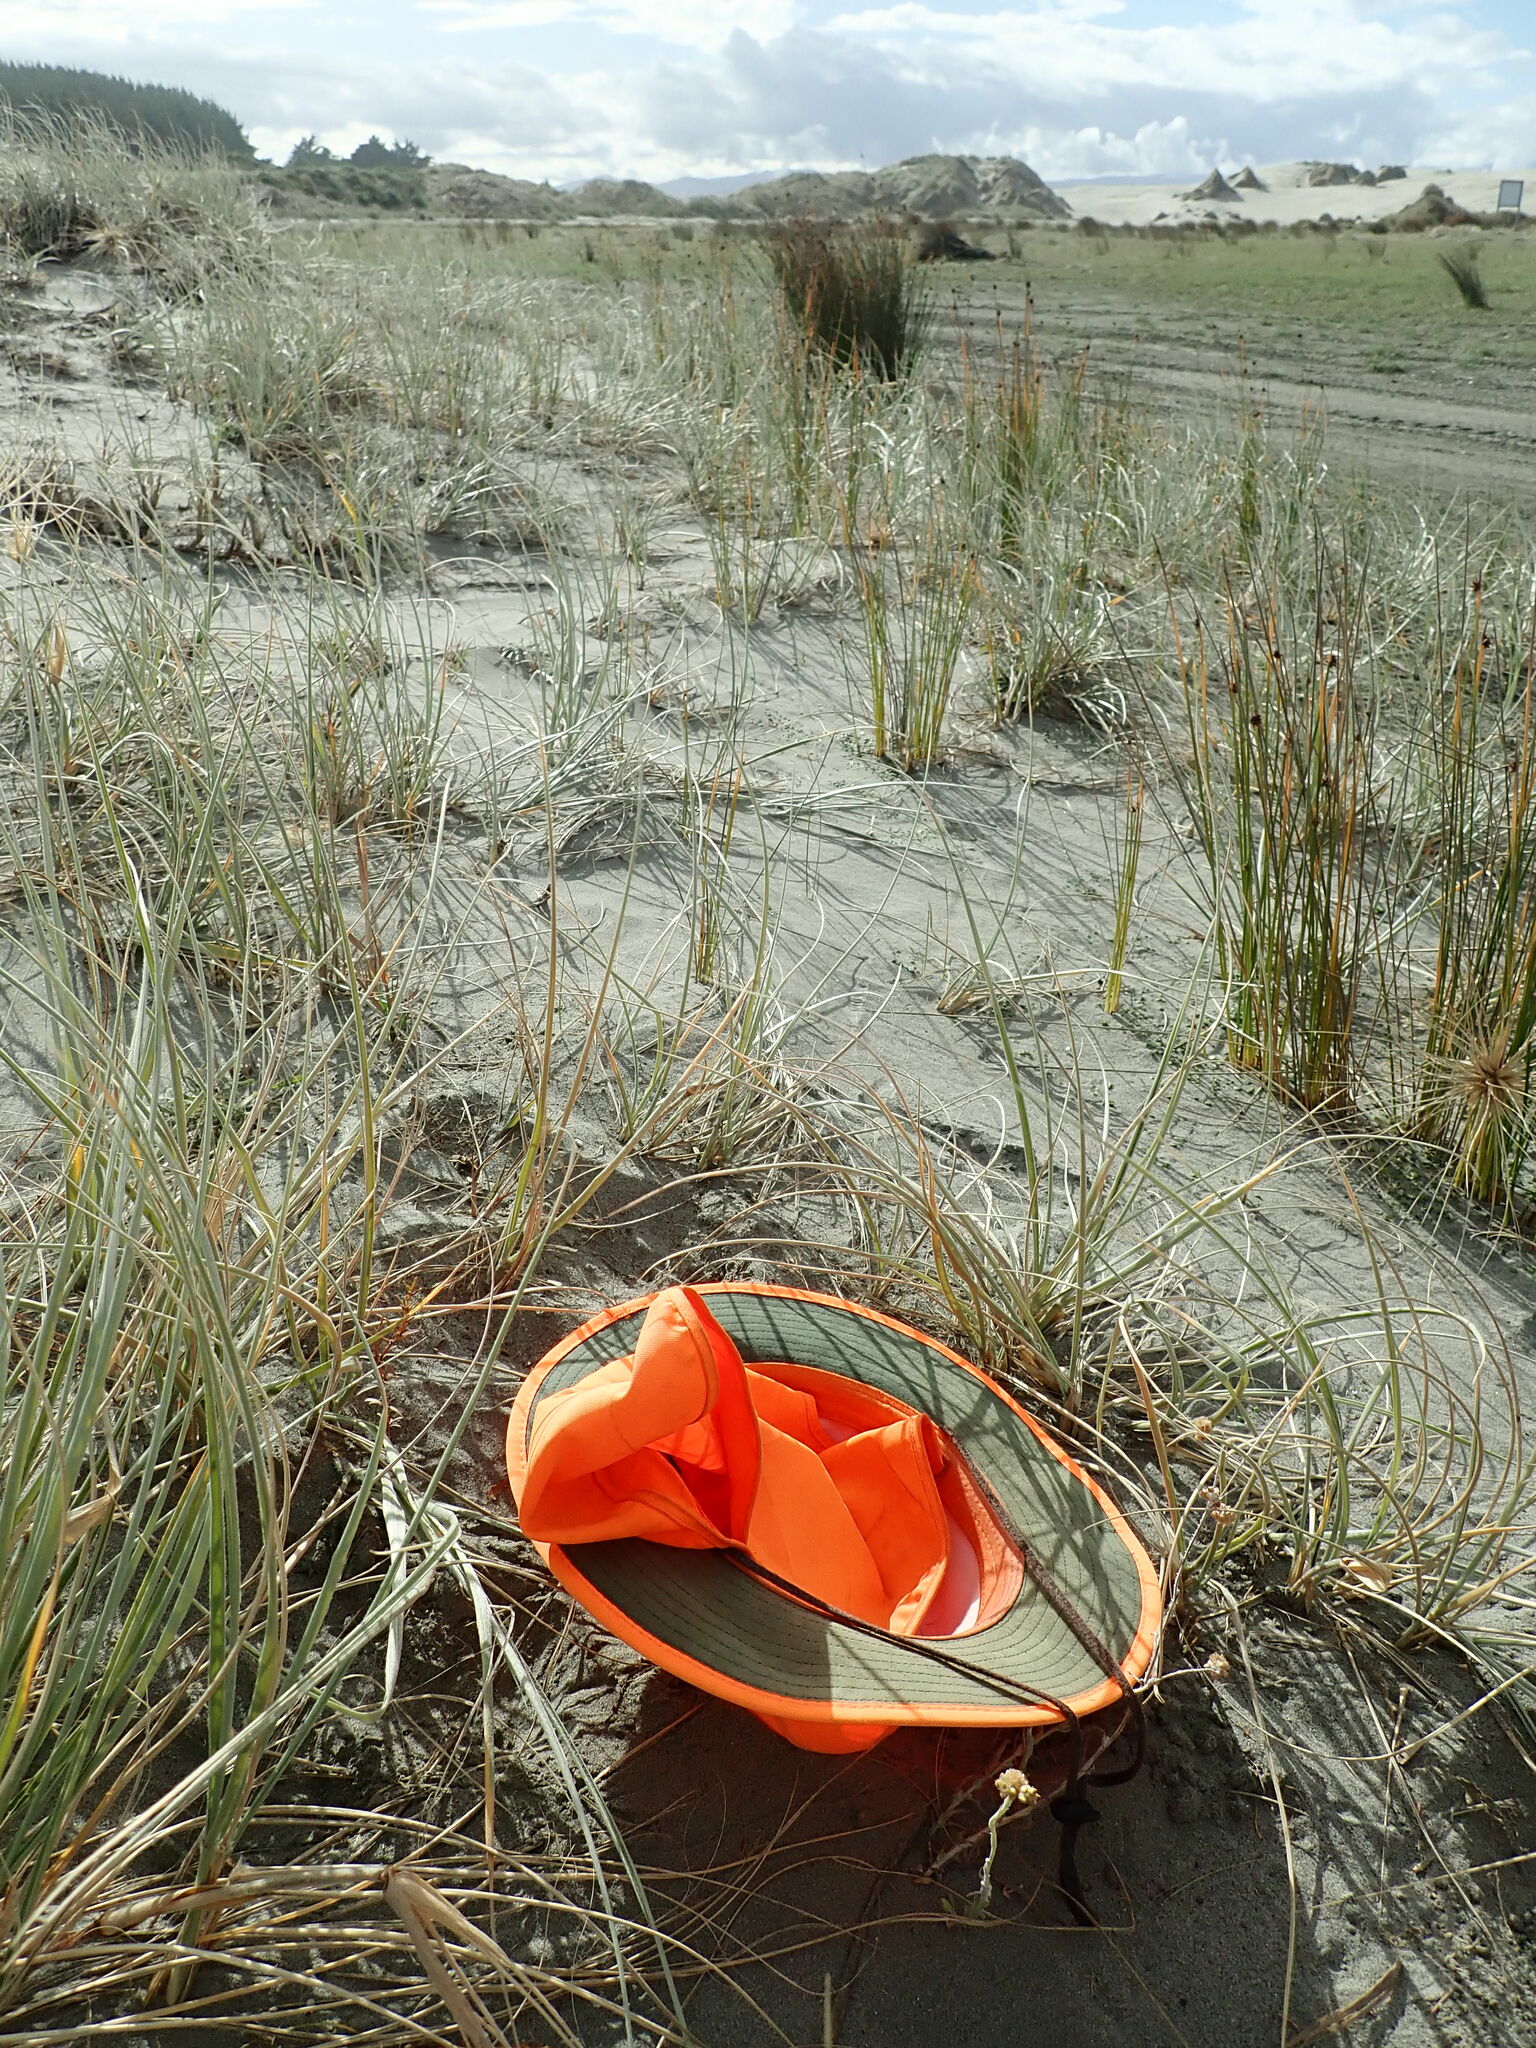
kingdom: Plantae
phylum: Tracheophyta
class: Magnoliopsida
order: Gentianales
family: Rubiaceae
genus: Coprosma
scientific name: Coprosma acerosa
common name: Sand coprosma
